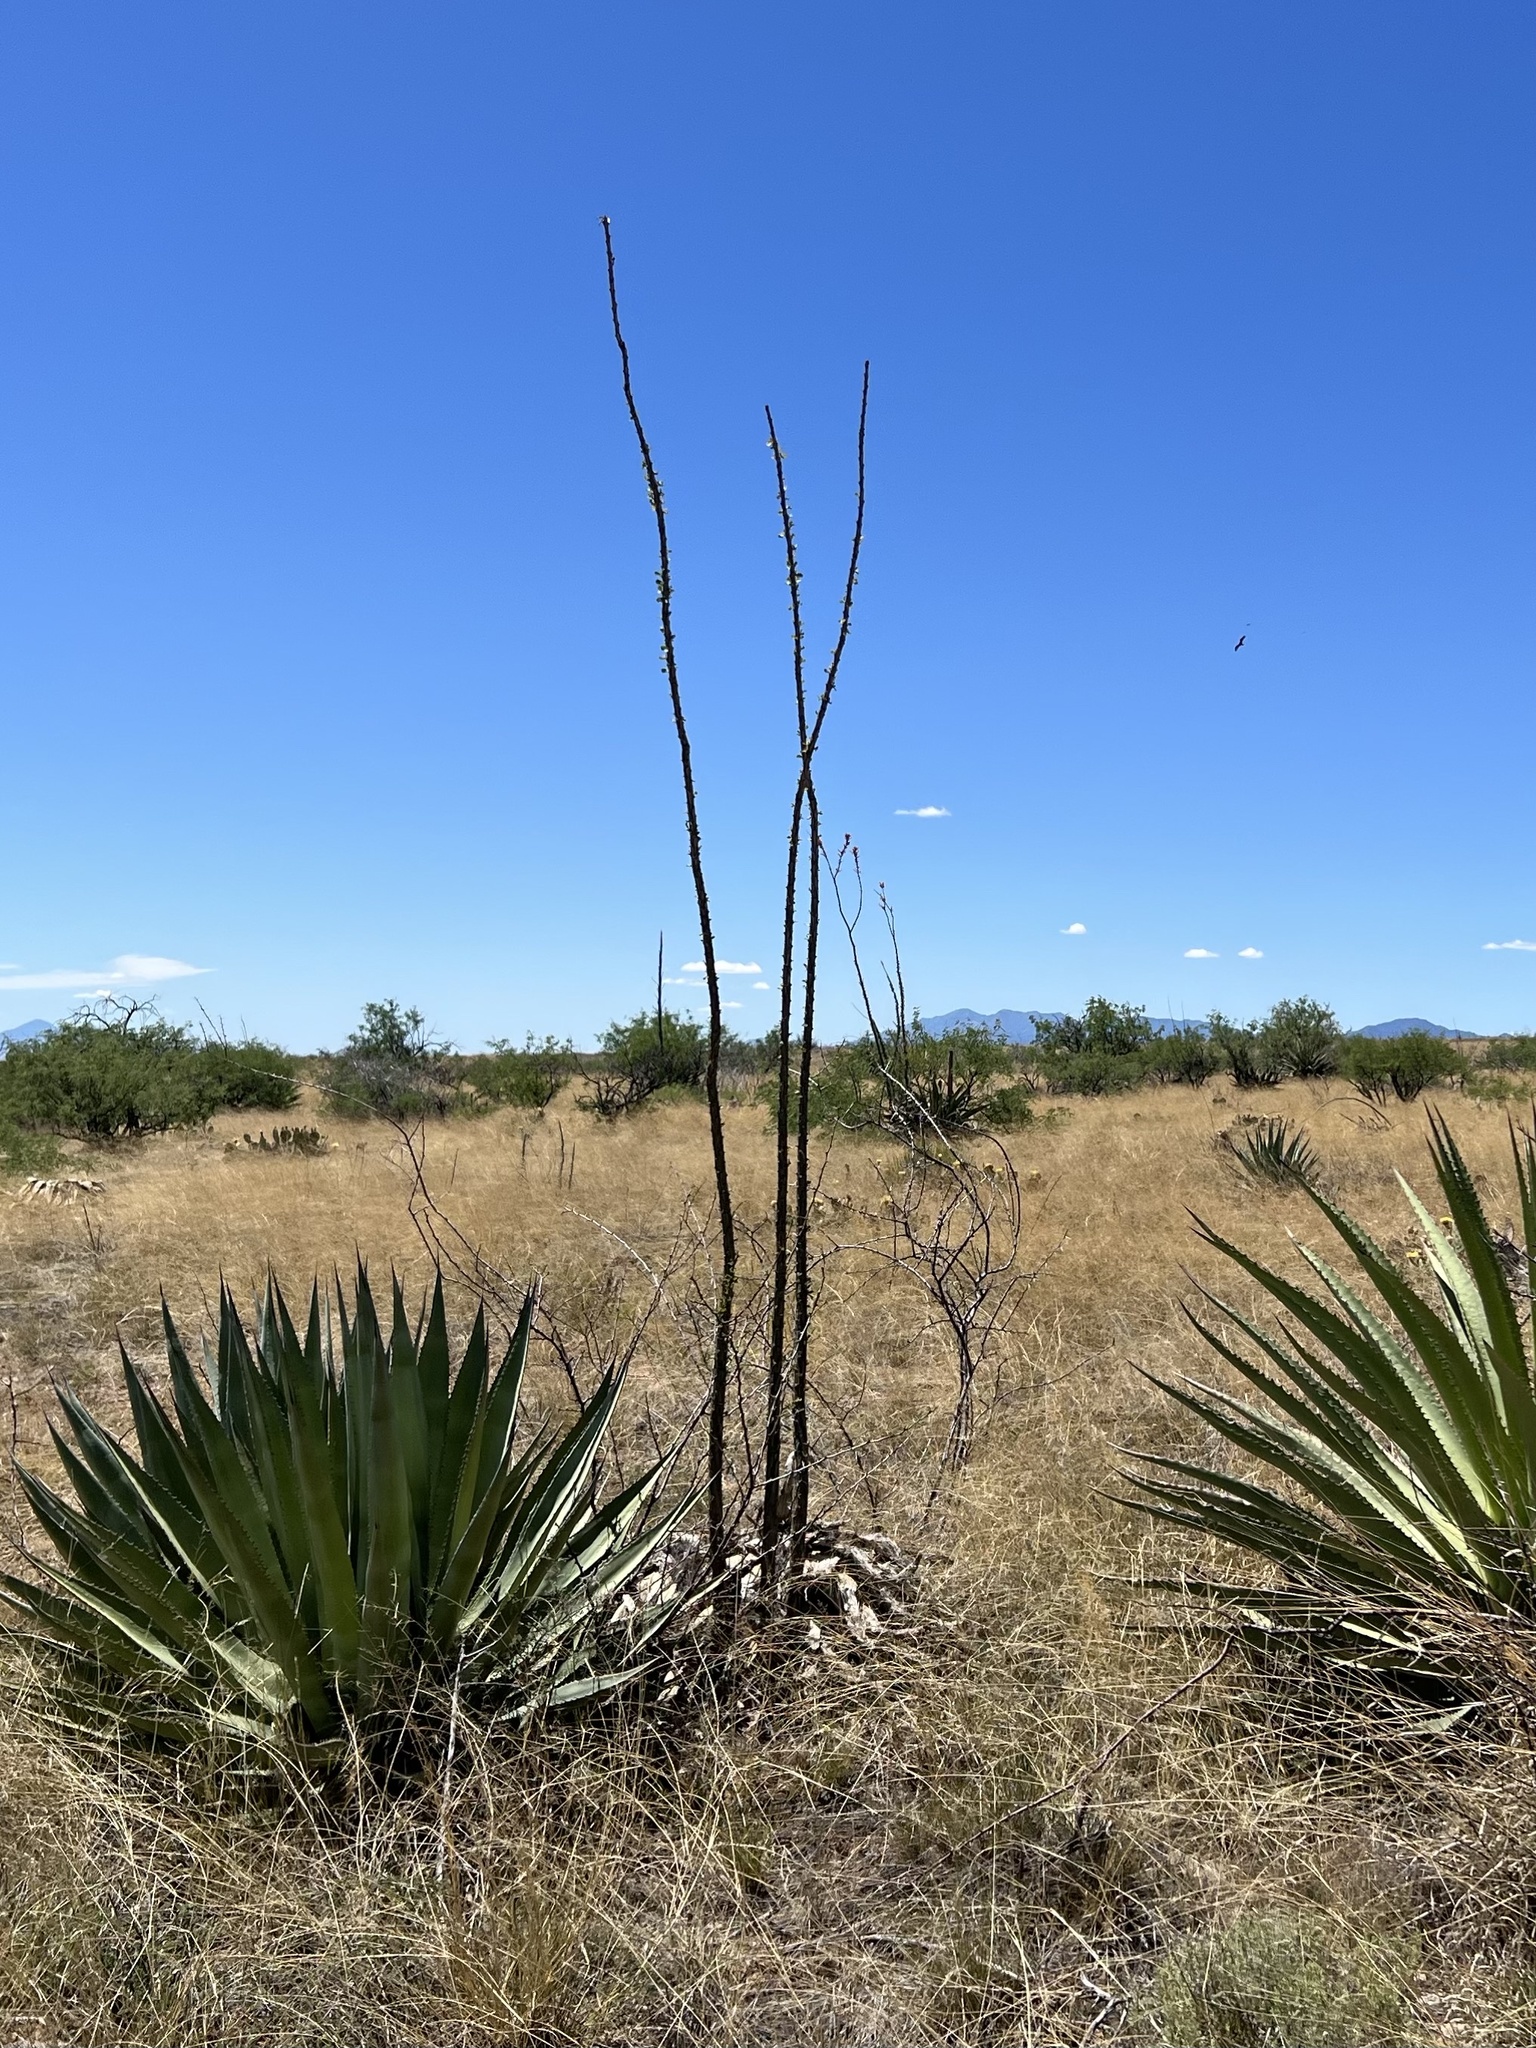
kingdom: Plantae
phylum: Tracheophyta
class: Magnoliopsida
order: Ericales
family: Fouquieriaceae
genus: Fouquieria
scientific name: Fouquieria splendens
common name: Vine-cactus
